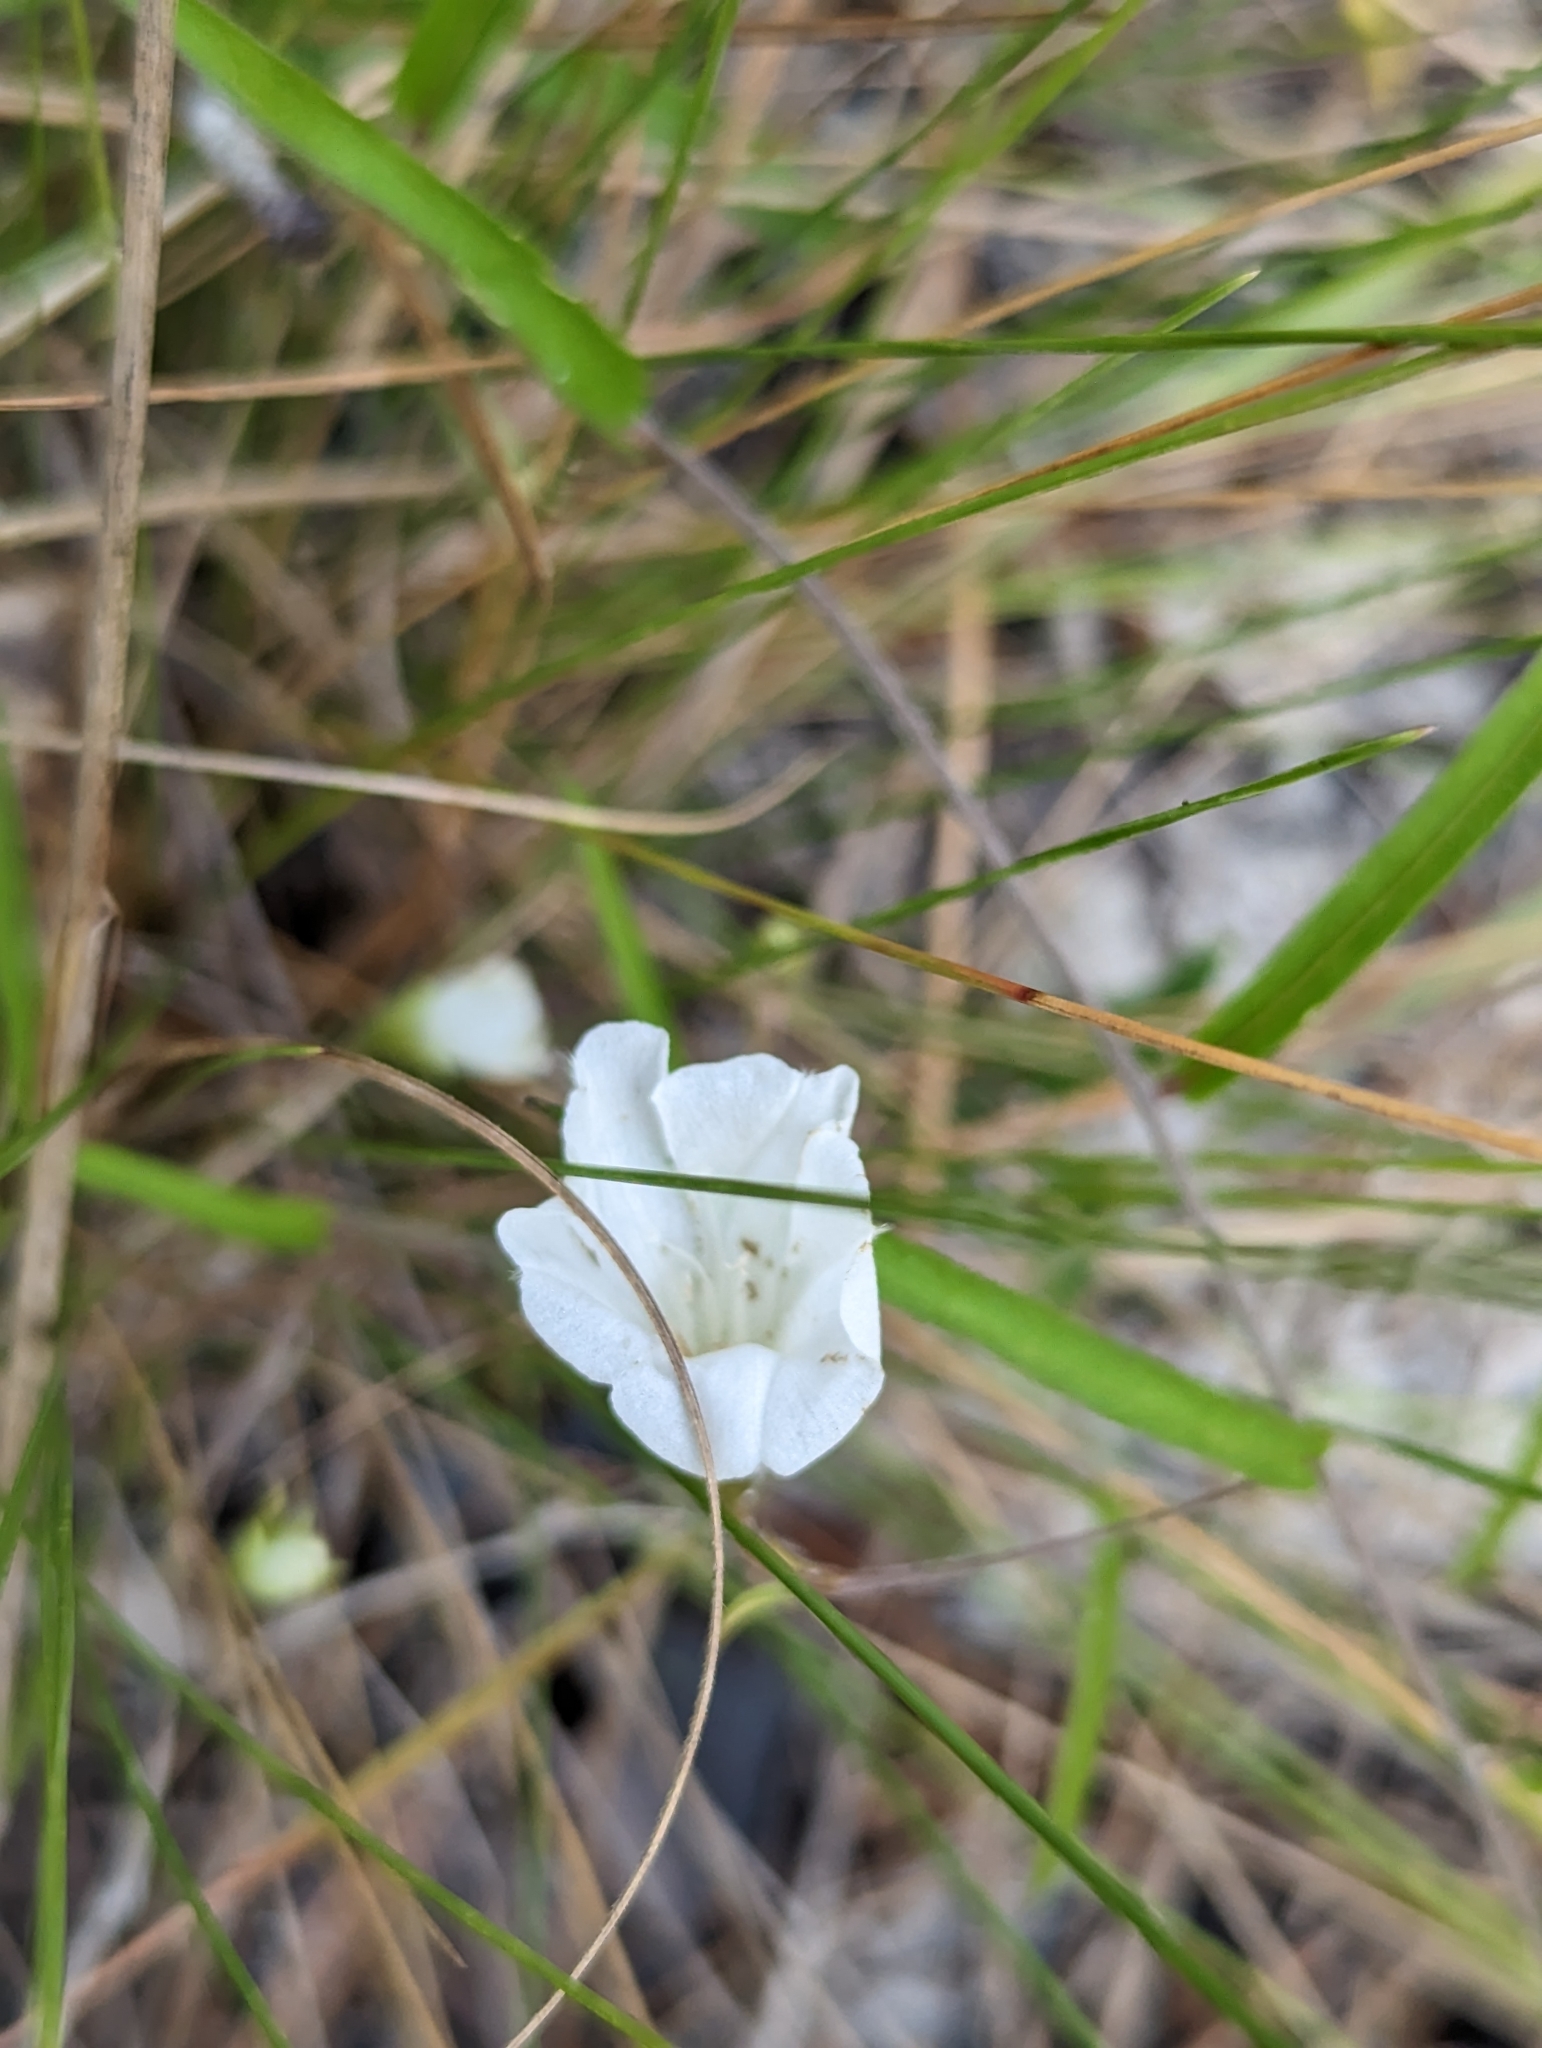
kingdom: Plantae
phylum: Tracheophyta
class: Magnoliopsida
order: Solanales
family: Convolvulaceae
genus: Stylisma
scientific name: Stylisma patens
